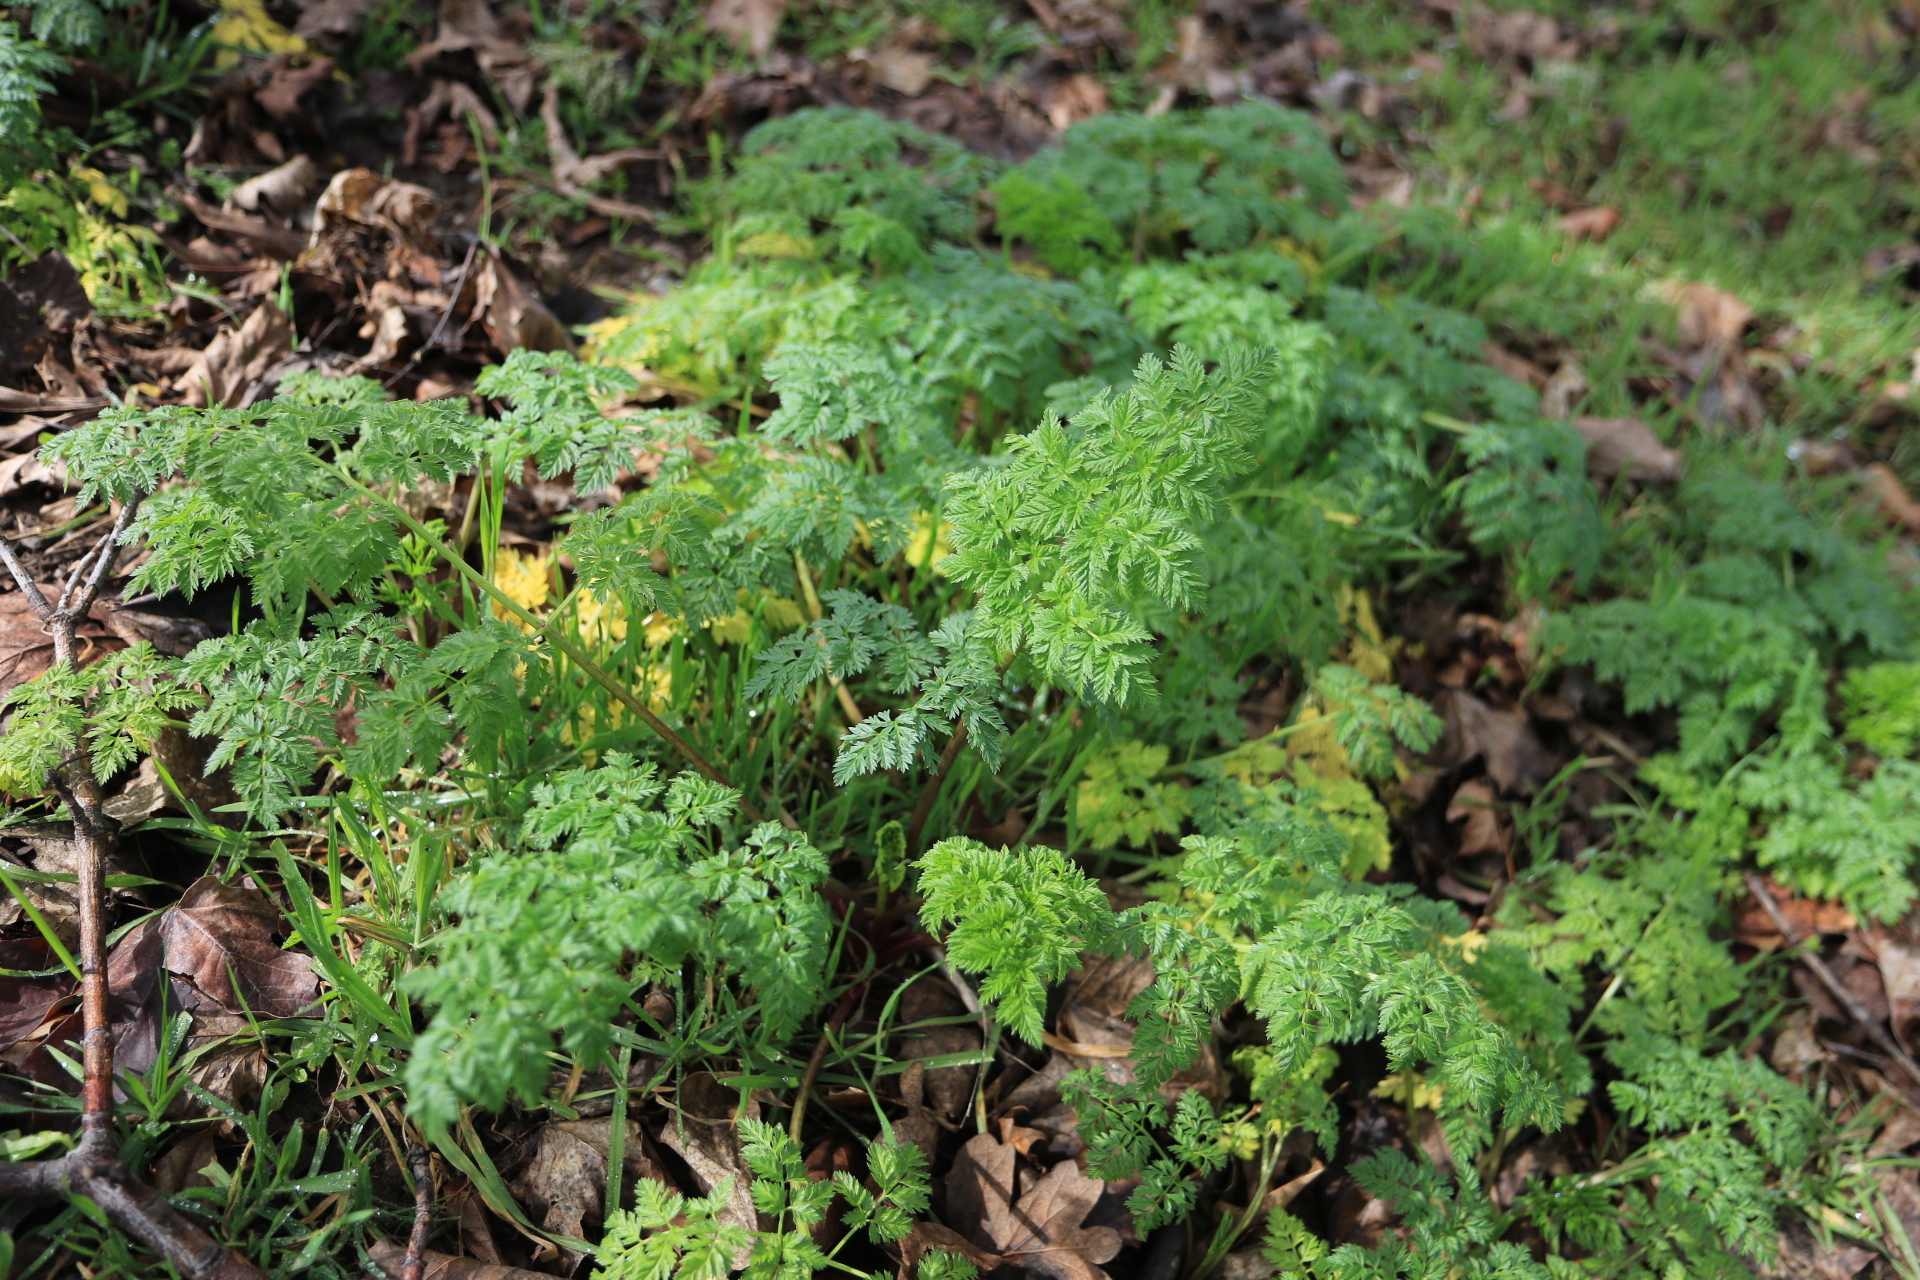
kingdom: Plantae
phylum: Tracheophyta
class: Magnoliopsida
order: Apiales
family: Apiaceae
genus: Conium
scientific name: Conium maculatum
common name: Hemlock
